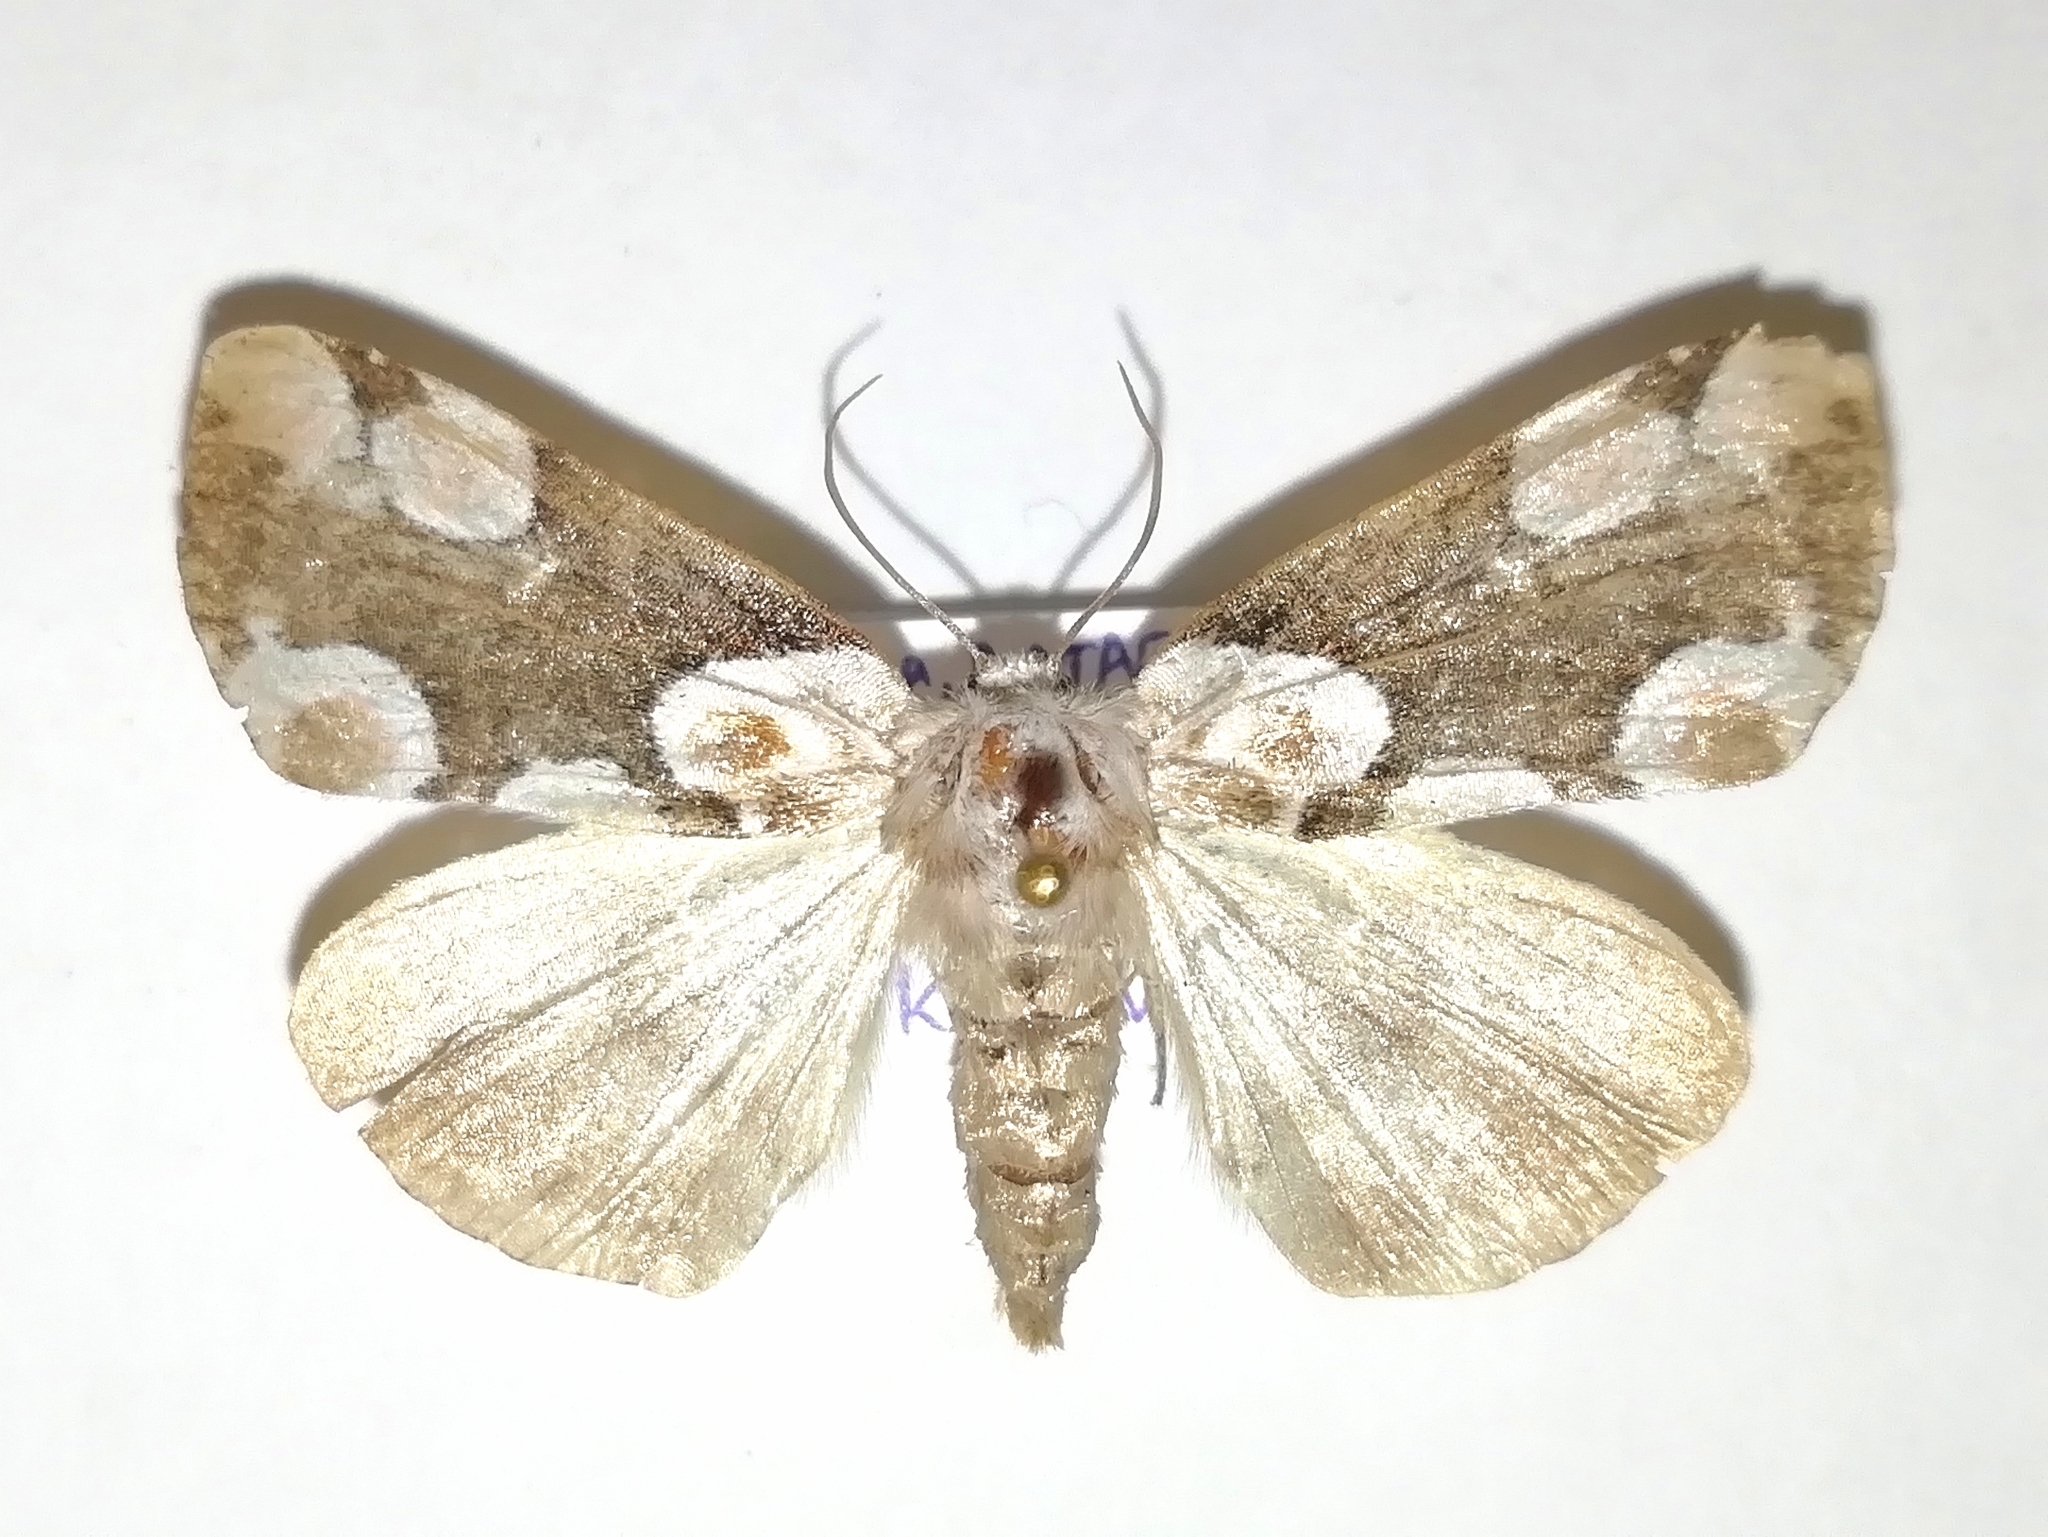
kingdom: Animalia
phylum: Arthropoda
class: Insecta
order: Lepidoptera
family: Drepanidae
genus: Thyatira
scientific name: Thyatira batis
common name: Peach blossom
